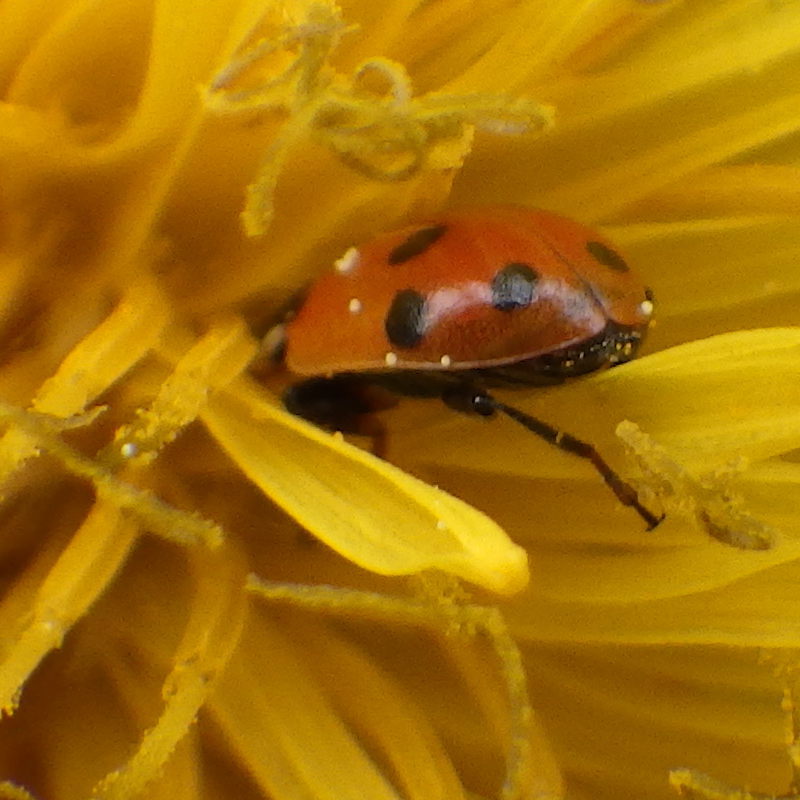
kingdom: Animalia
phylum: Arthropoda
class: Insecta
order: Coleoptera
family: Coccinellidae
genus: Hippodamia
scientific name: Hippodamia variegata
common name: Ladybird beetle
